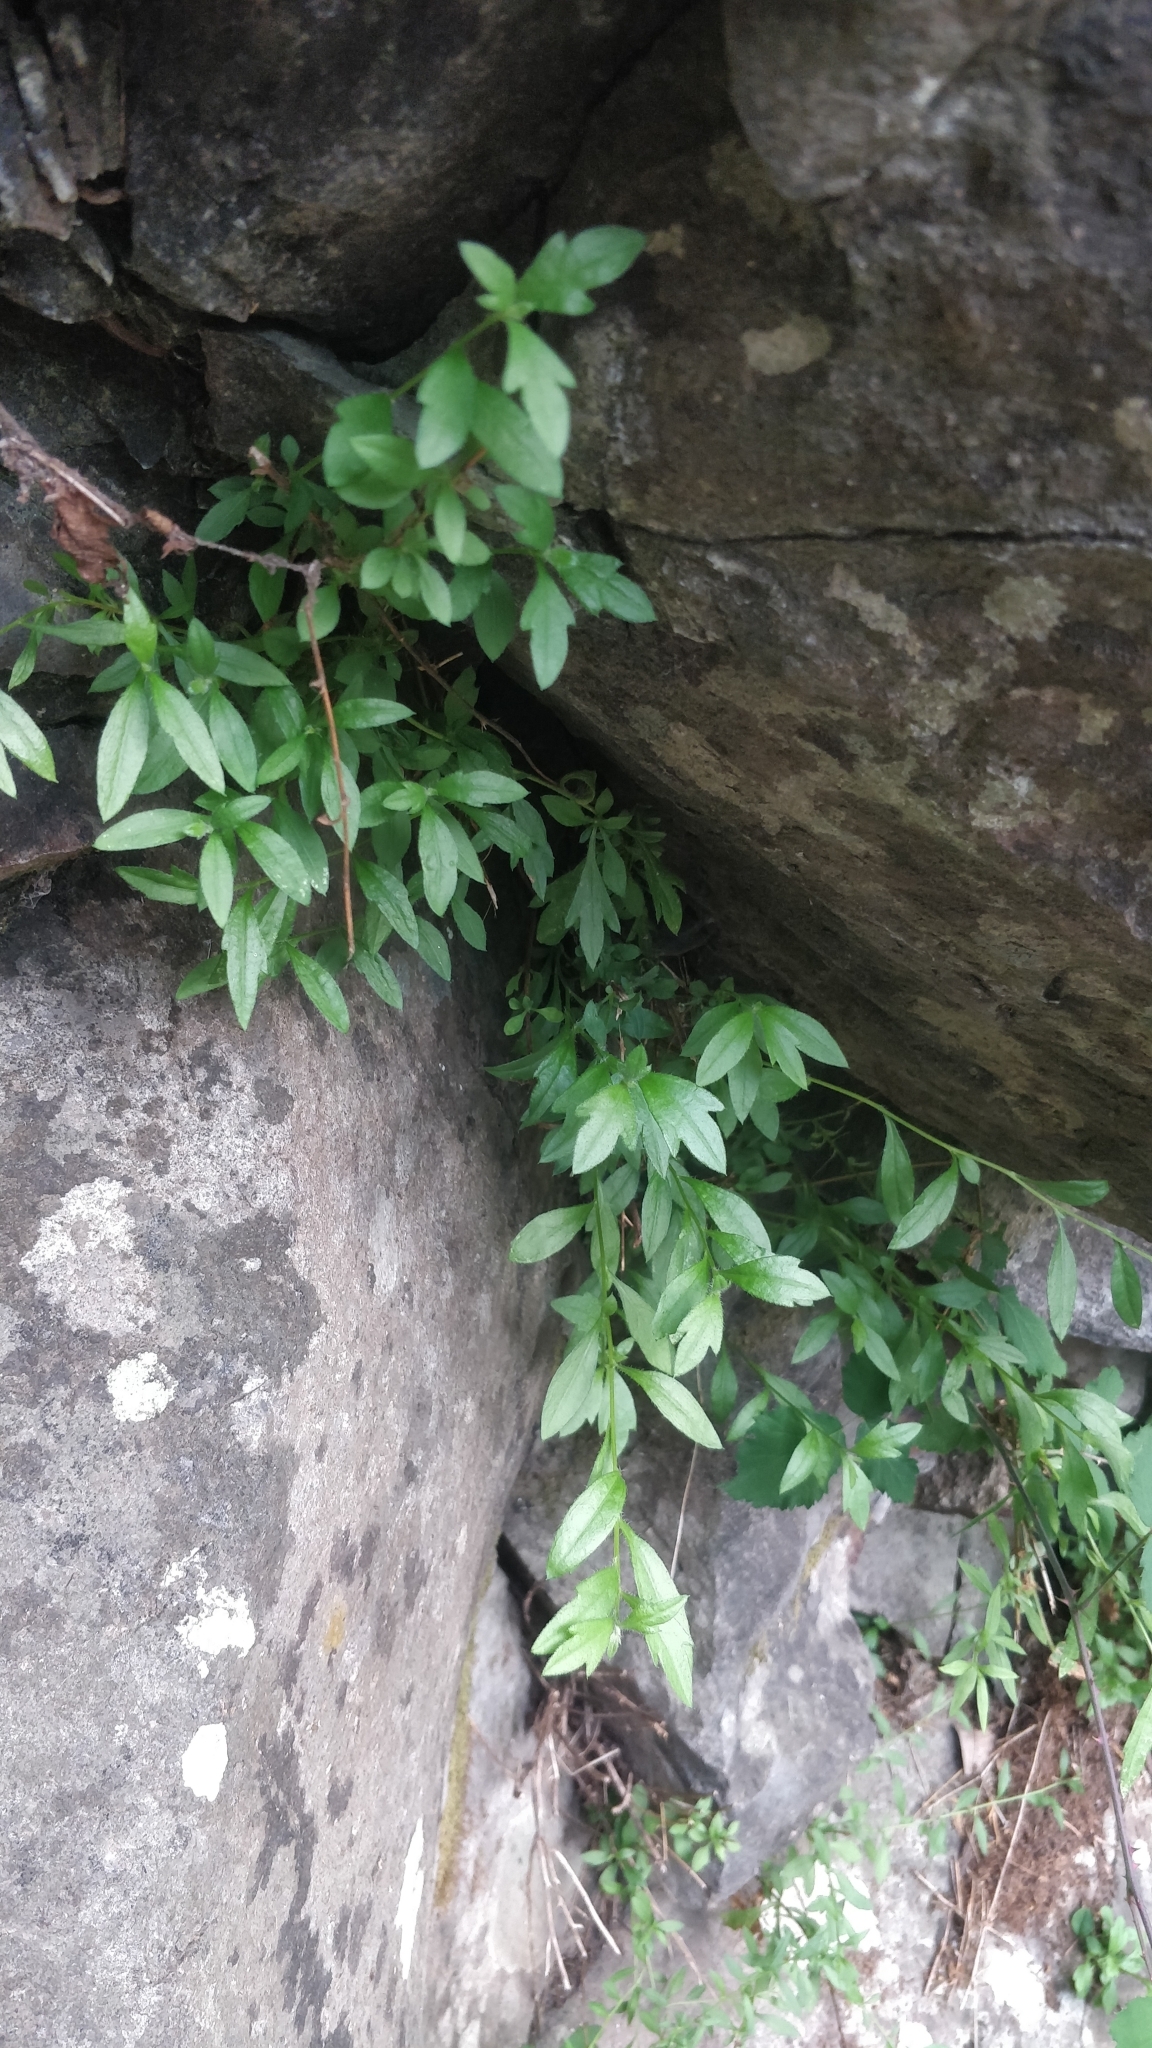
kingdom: Plantae
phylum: Tracheophyta
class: Magnoliopsida
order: Asterales
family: Asteraceae
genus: Erigeron
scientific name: Erigeron karvinskianus
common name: Mexican fleabane
